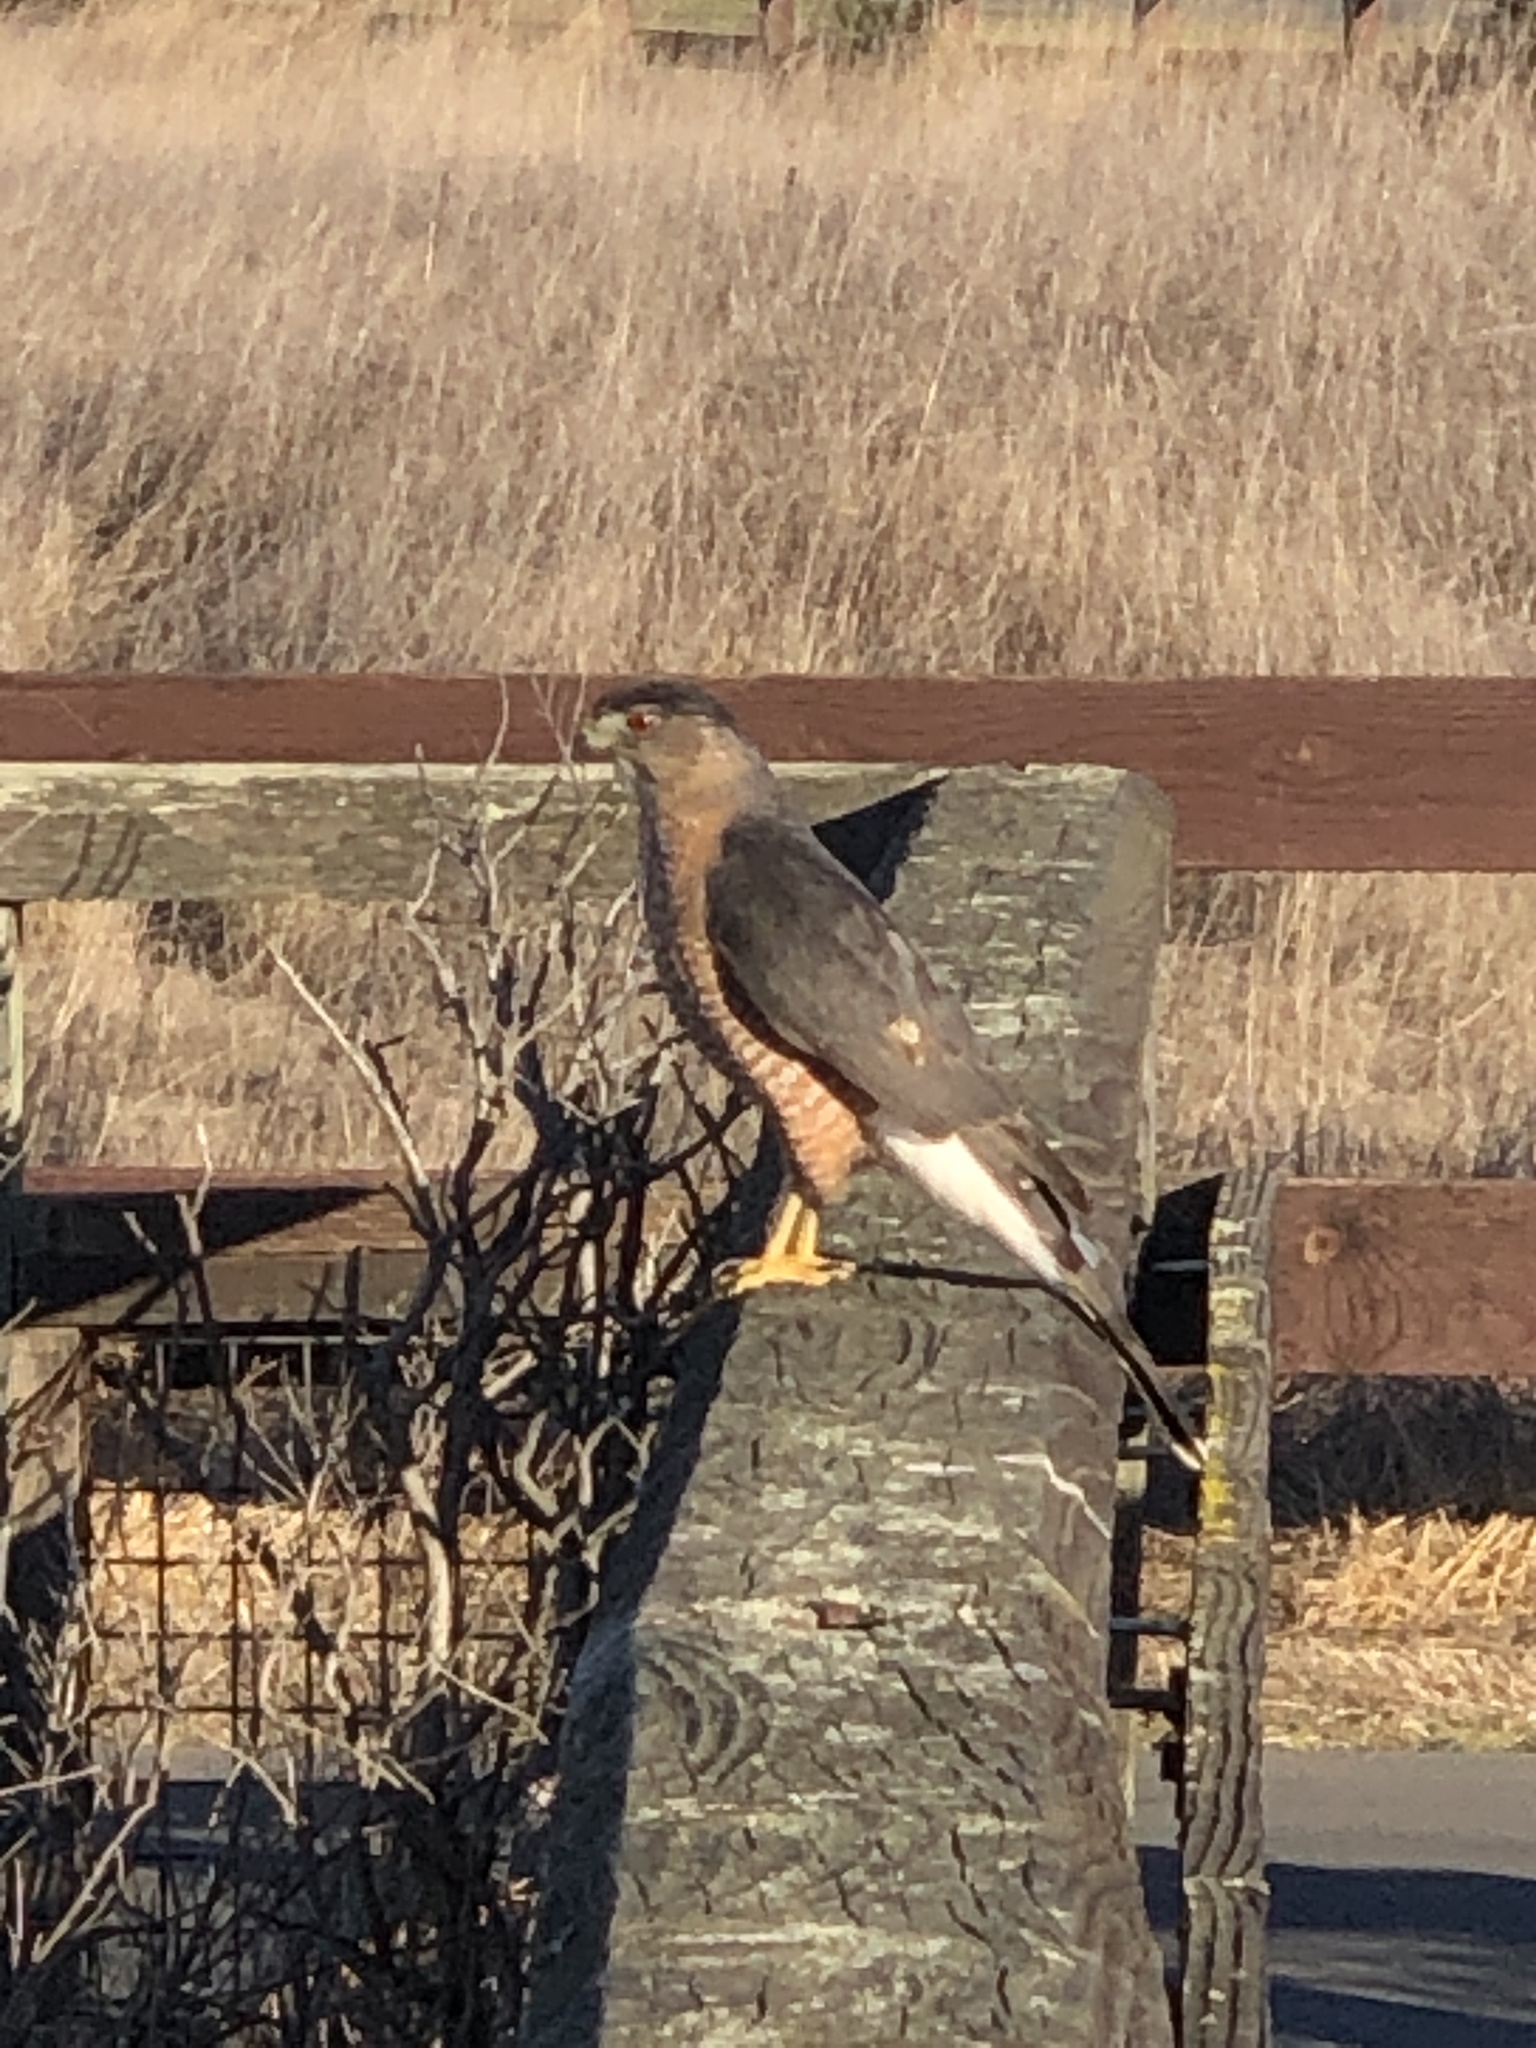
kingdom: Animalia
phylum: Chordata
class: Aves
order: Accipitriformes
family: Accipitridae
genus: Accipiter
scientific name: Accipiter cooperii
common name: Cooper's hawk
